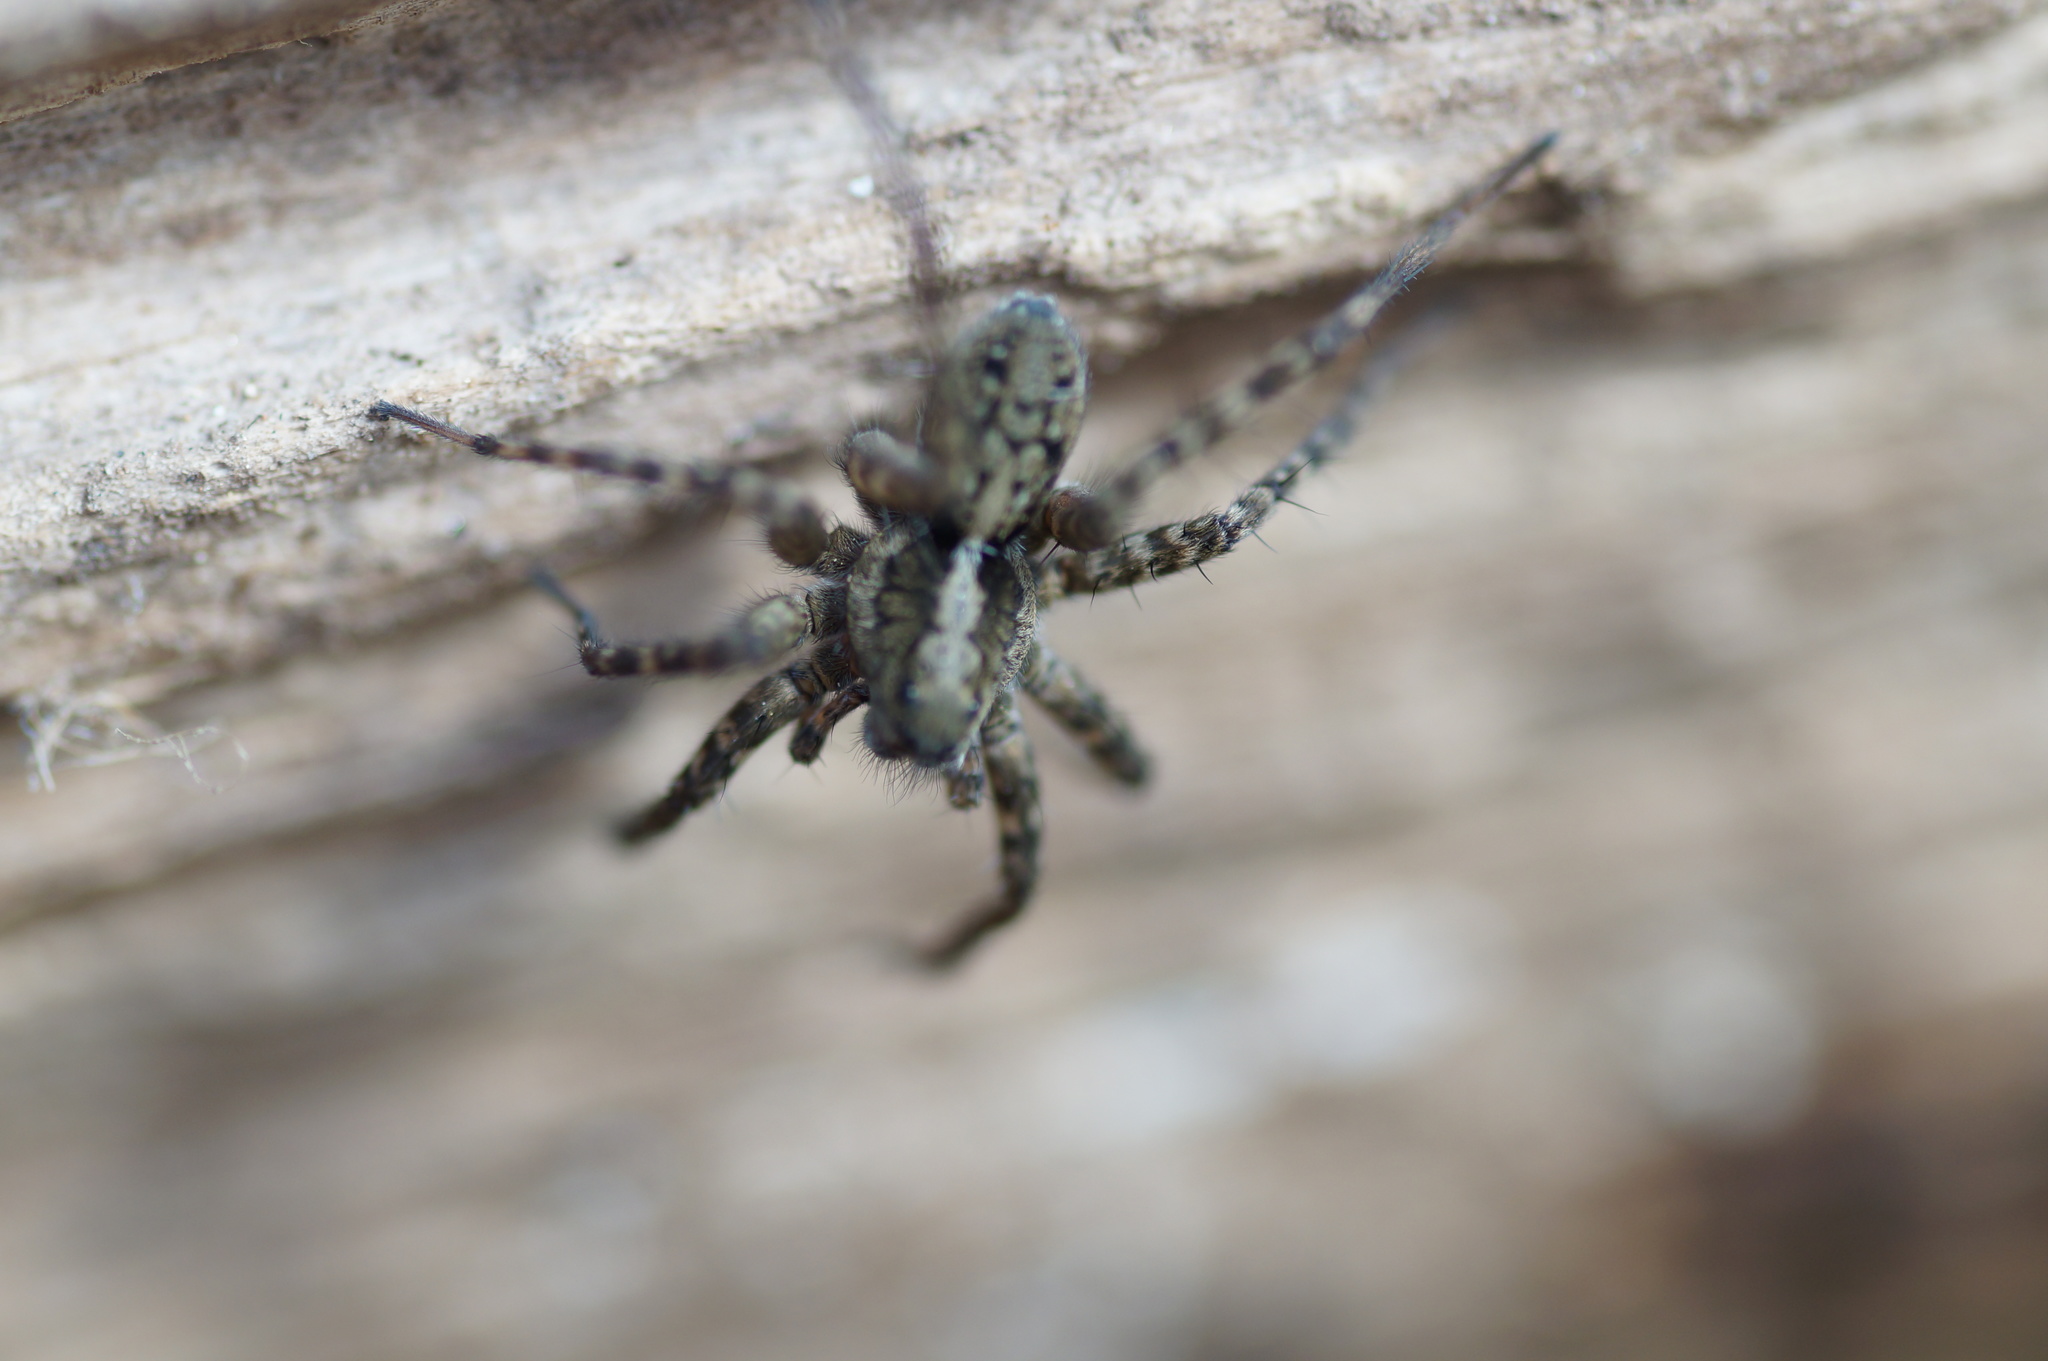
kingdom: Animalia
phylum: Arthropoda
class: Arachnida
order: Araneae
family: Lycosidae
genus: Acantholycosa
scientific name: Acantholycosa lignaria
